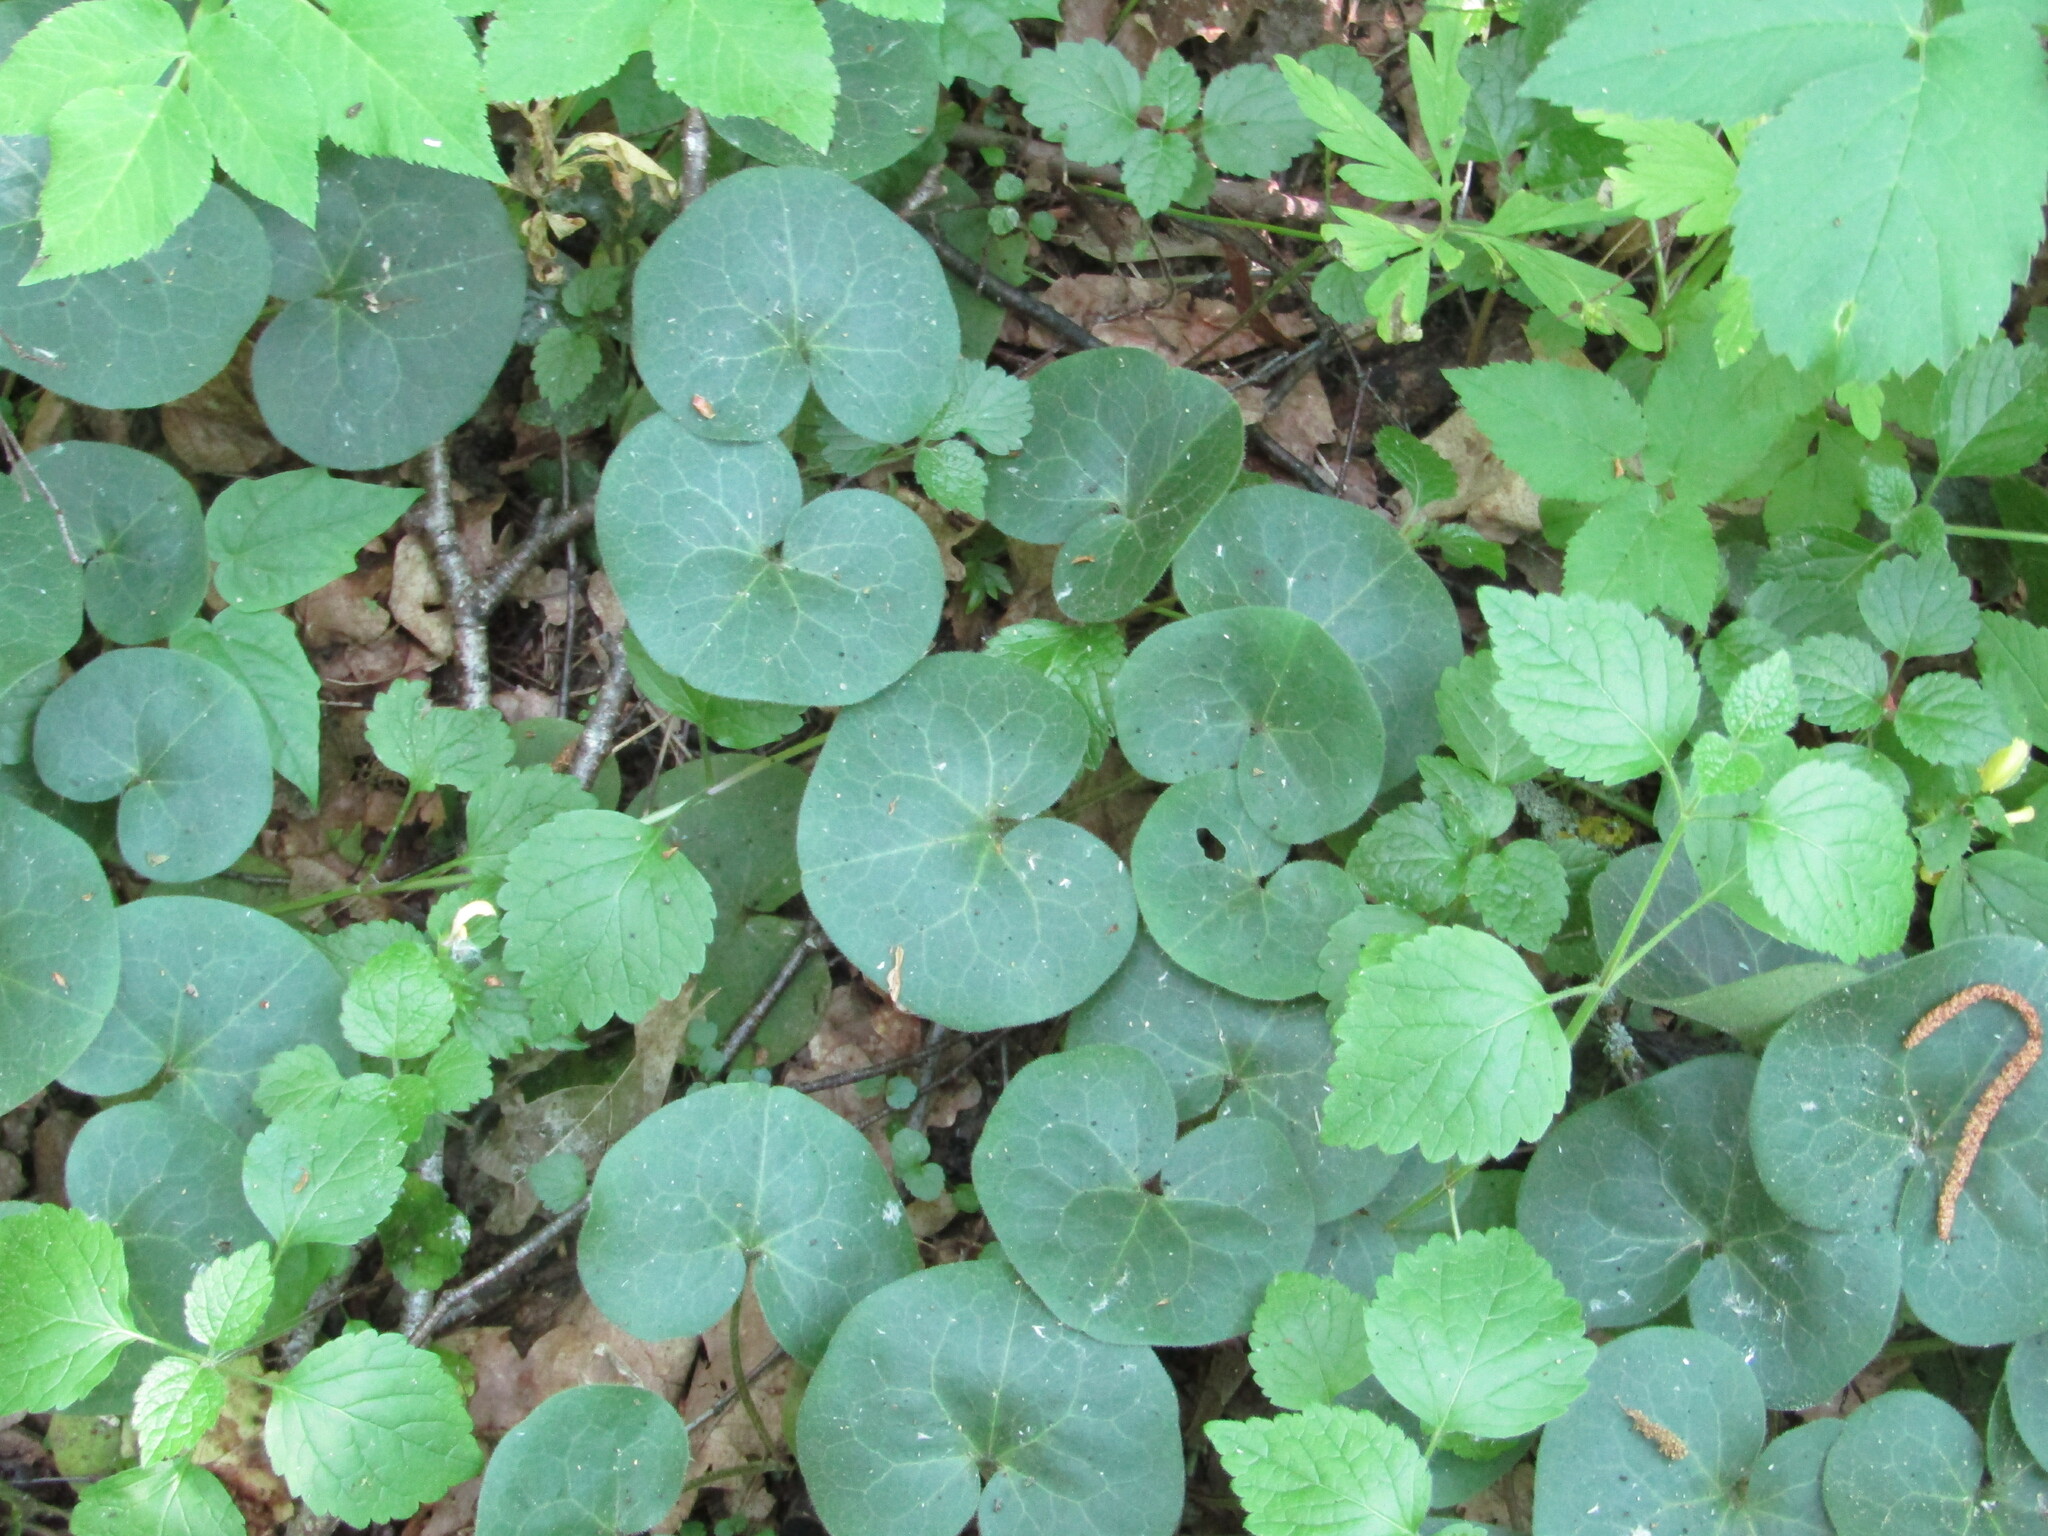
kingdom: Plantae
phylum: Tracheophyta
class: Magnoliopsida
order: Piperales
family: Aristolochiaceae
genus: Asarum
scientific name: Asarum europaeum
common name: Asarabacca
